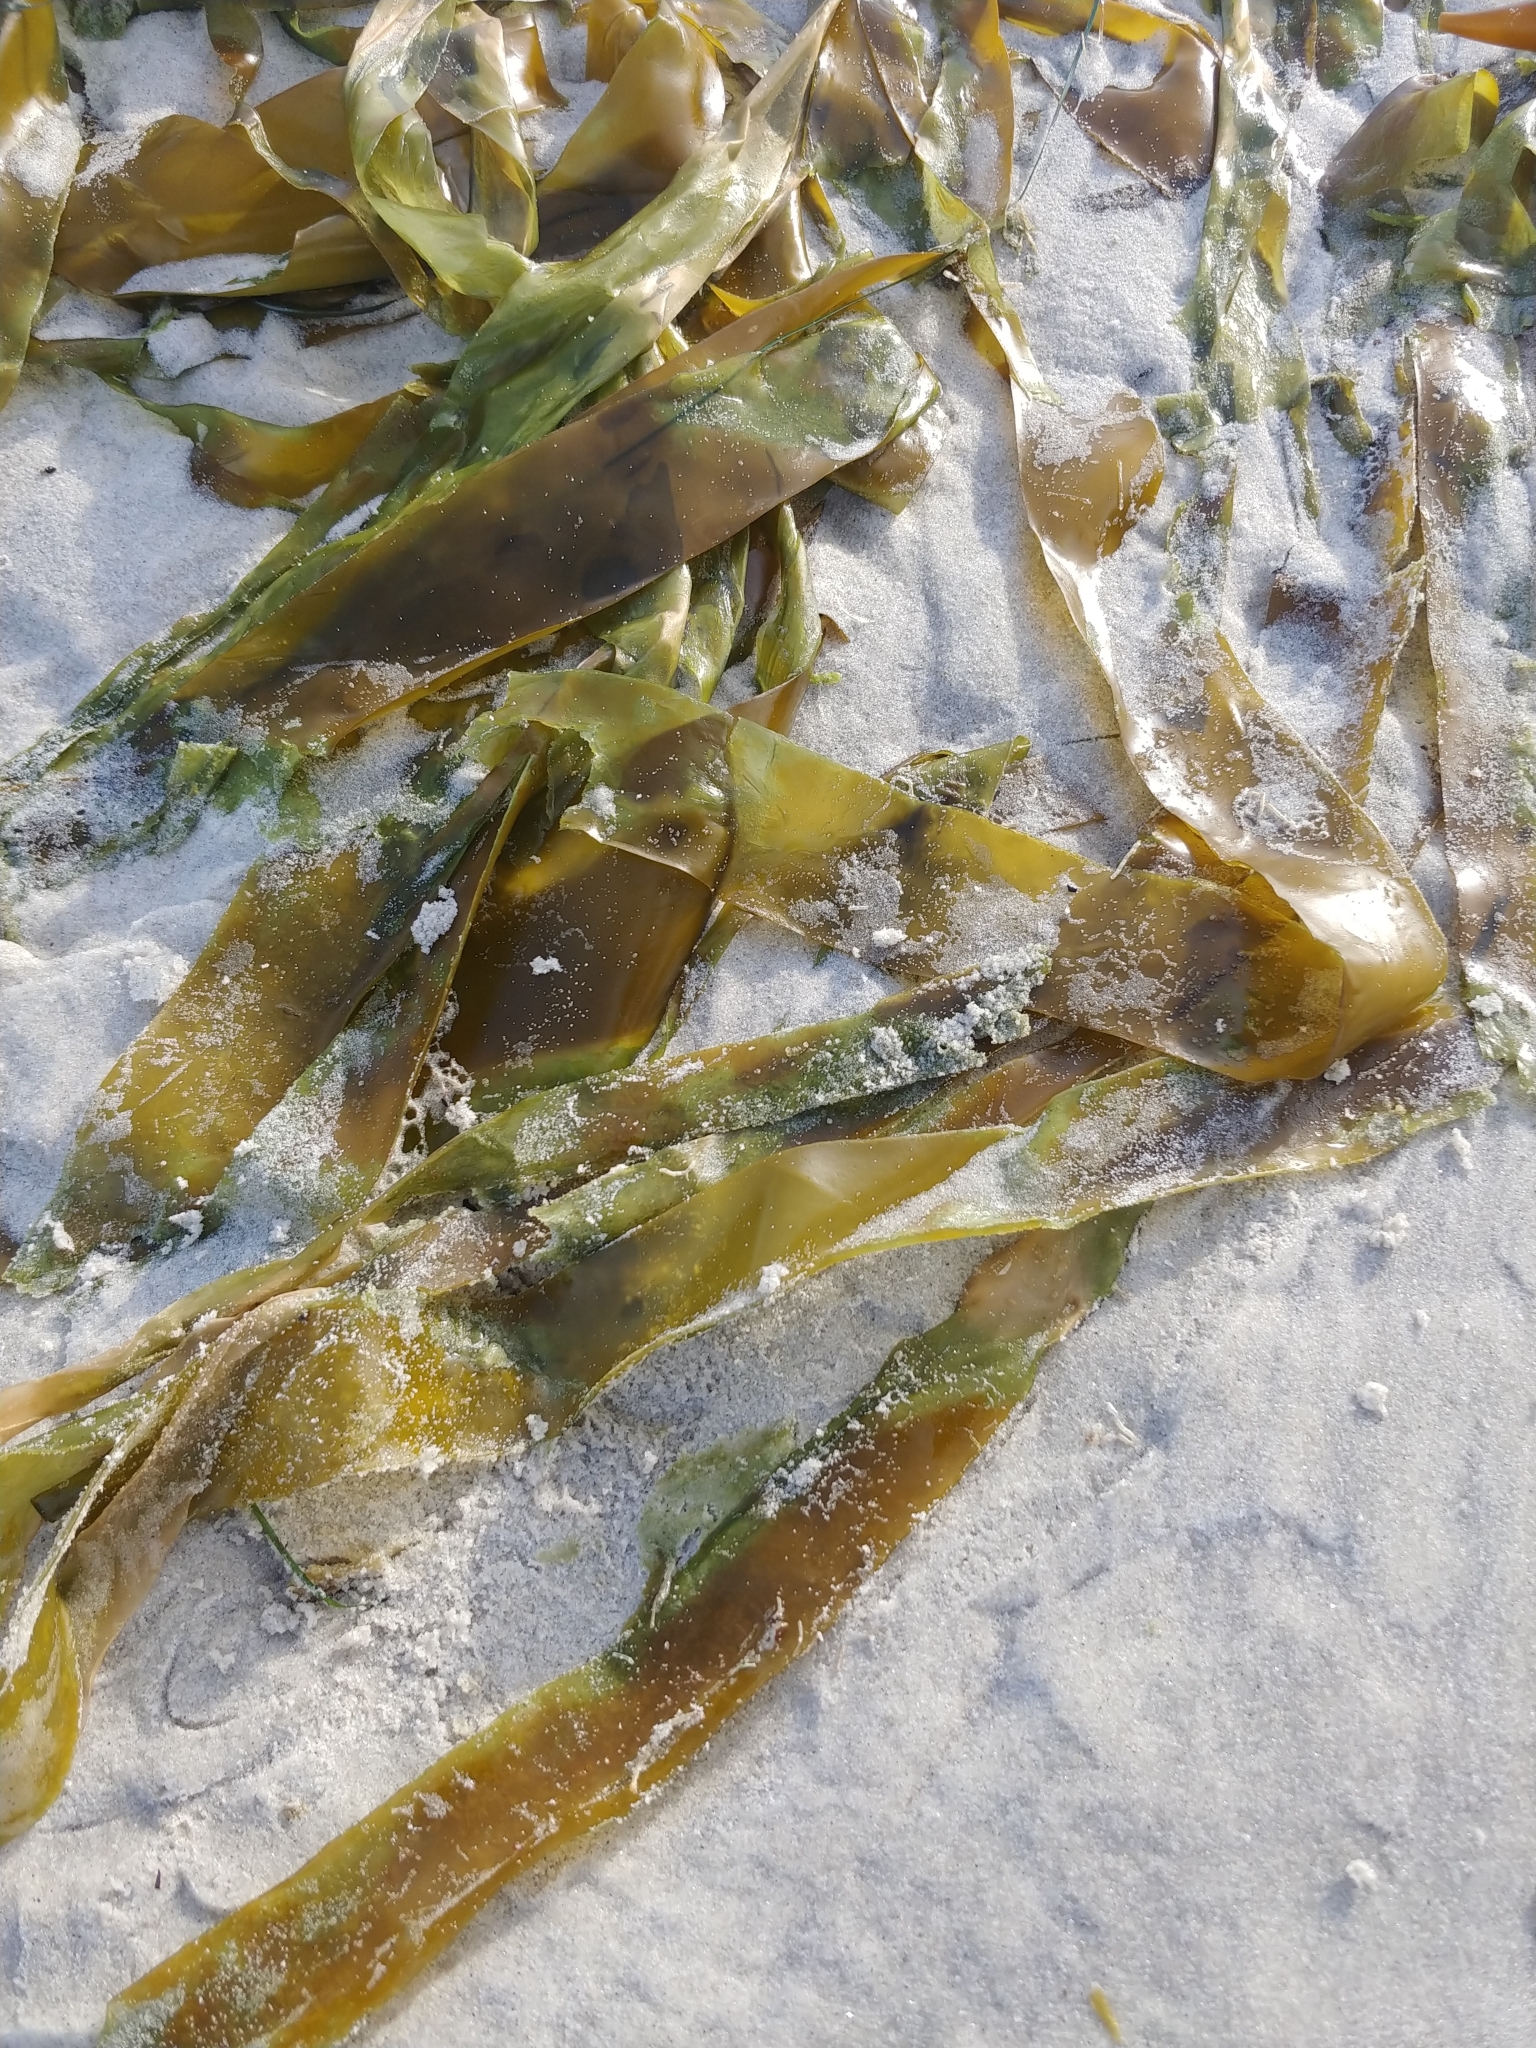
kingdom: Chromista
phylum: Ochrophyta
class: Phaeophyceae
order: Laminariales
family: Laminariaceae
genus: Nereocystis
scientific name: Nereocystis luetkeana
